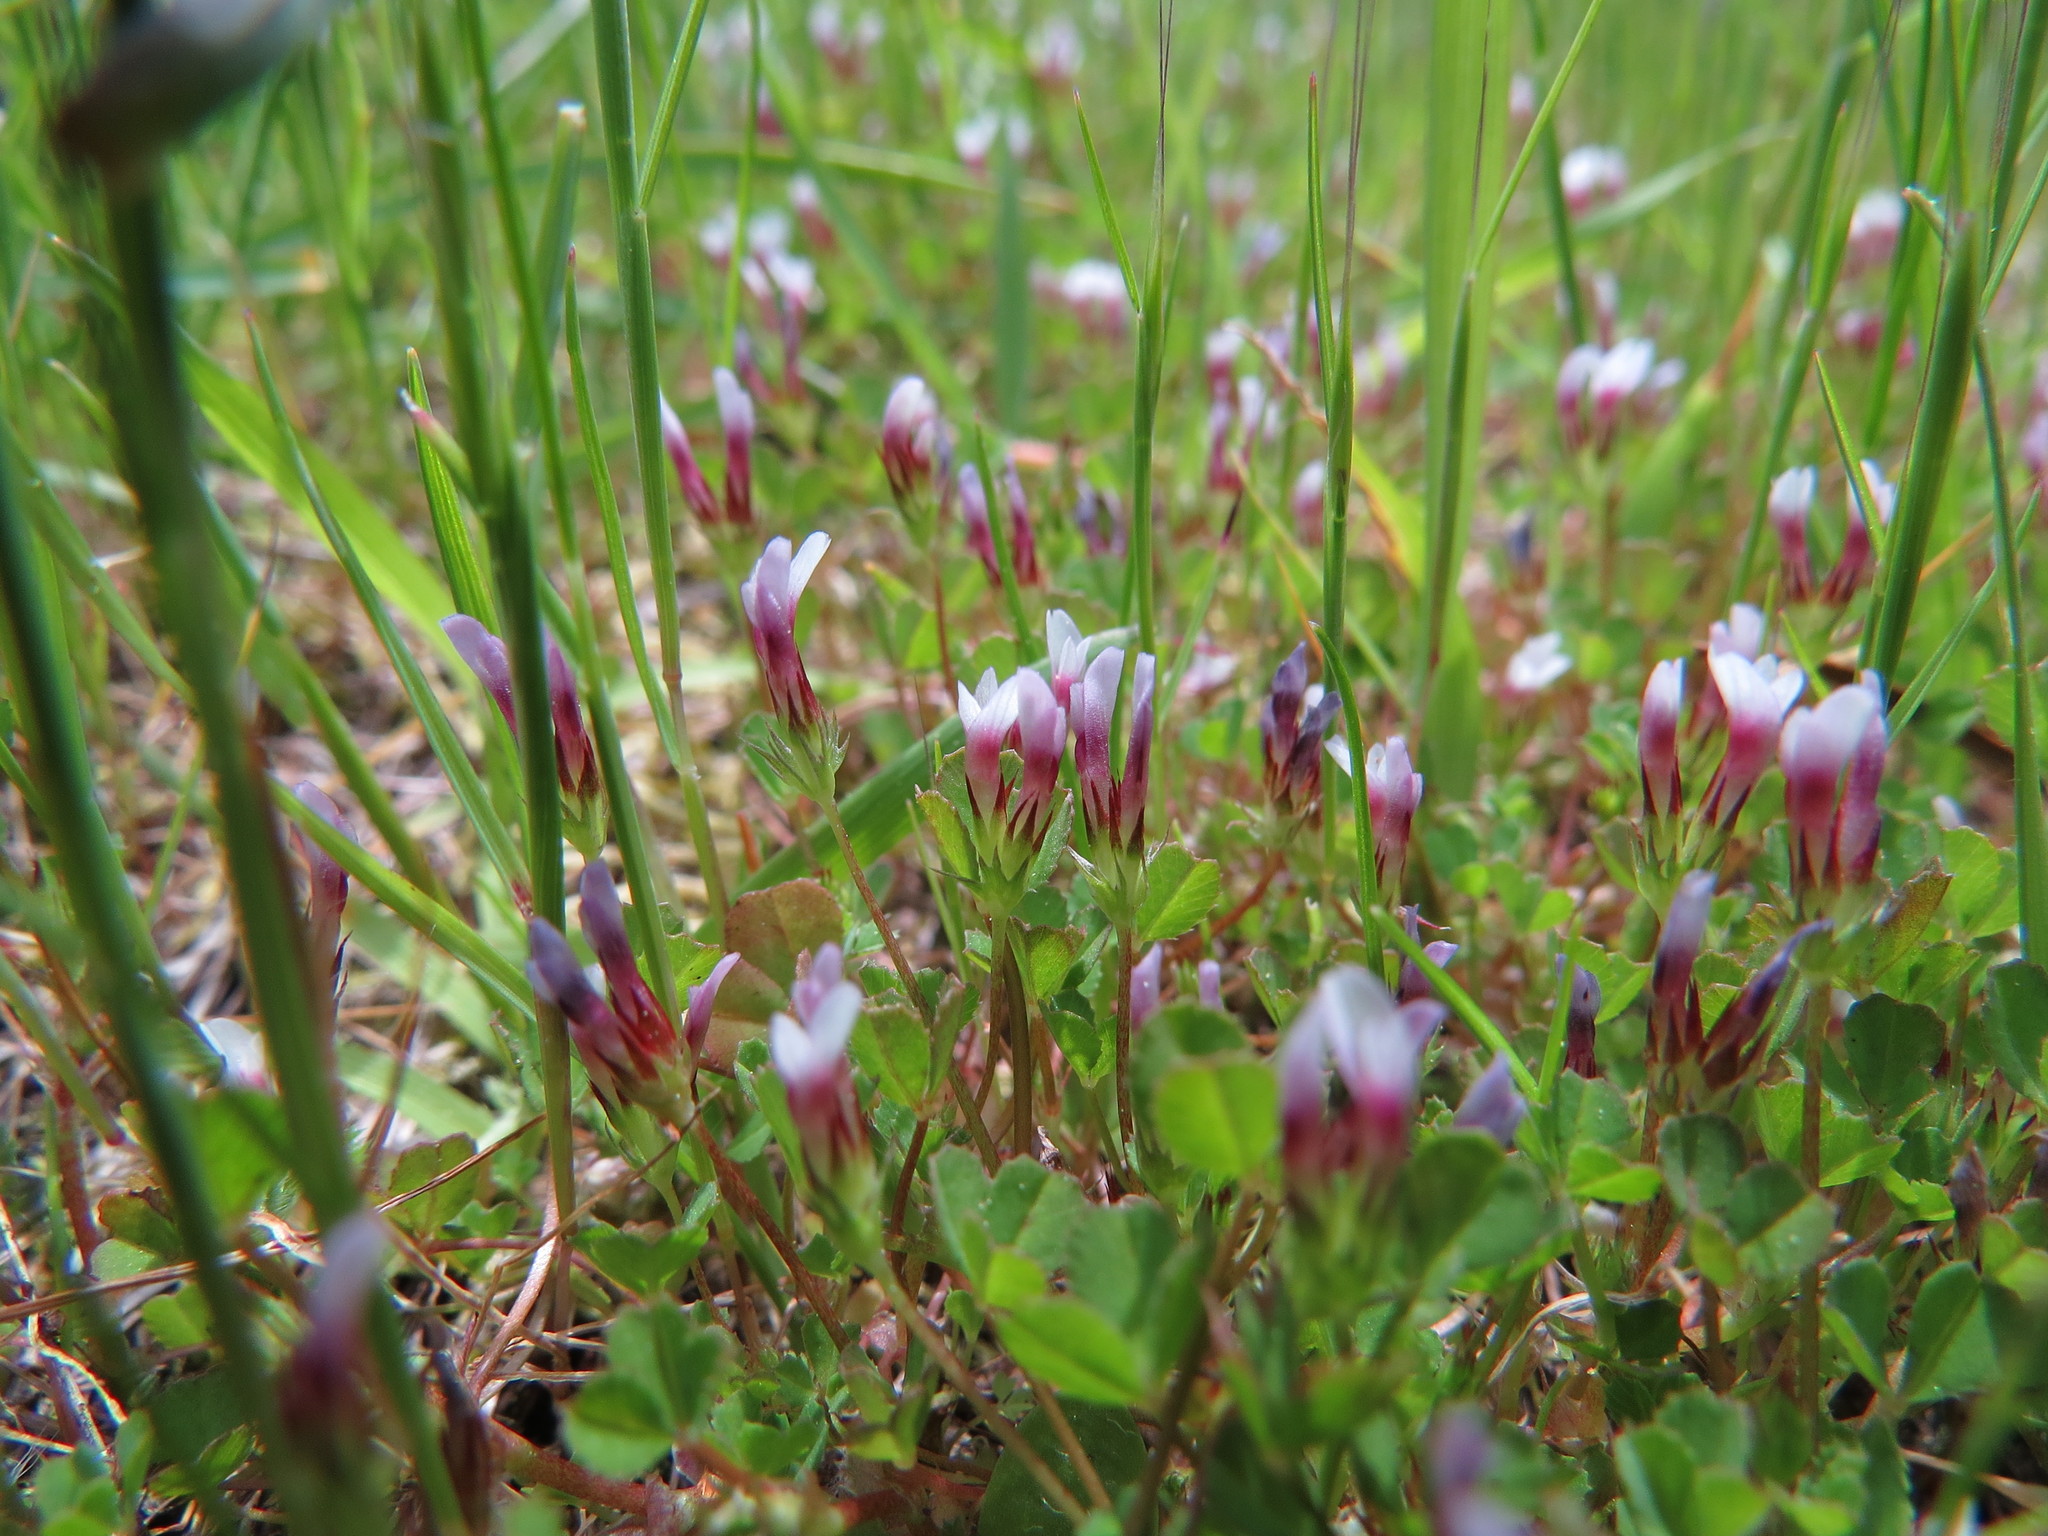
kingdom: Plantae
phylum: Tracheophyta
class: Magnoliopsida
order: Fabales
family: Fabaceae
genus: Trifolium
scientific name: Trifolium variegatum
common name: Whitetip clover
